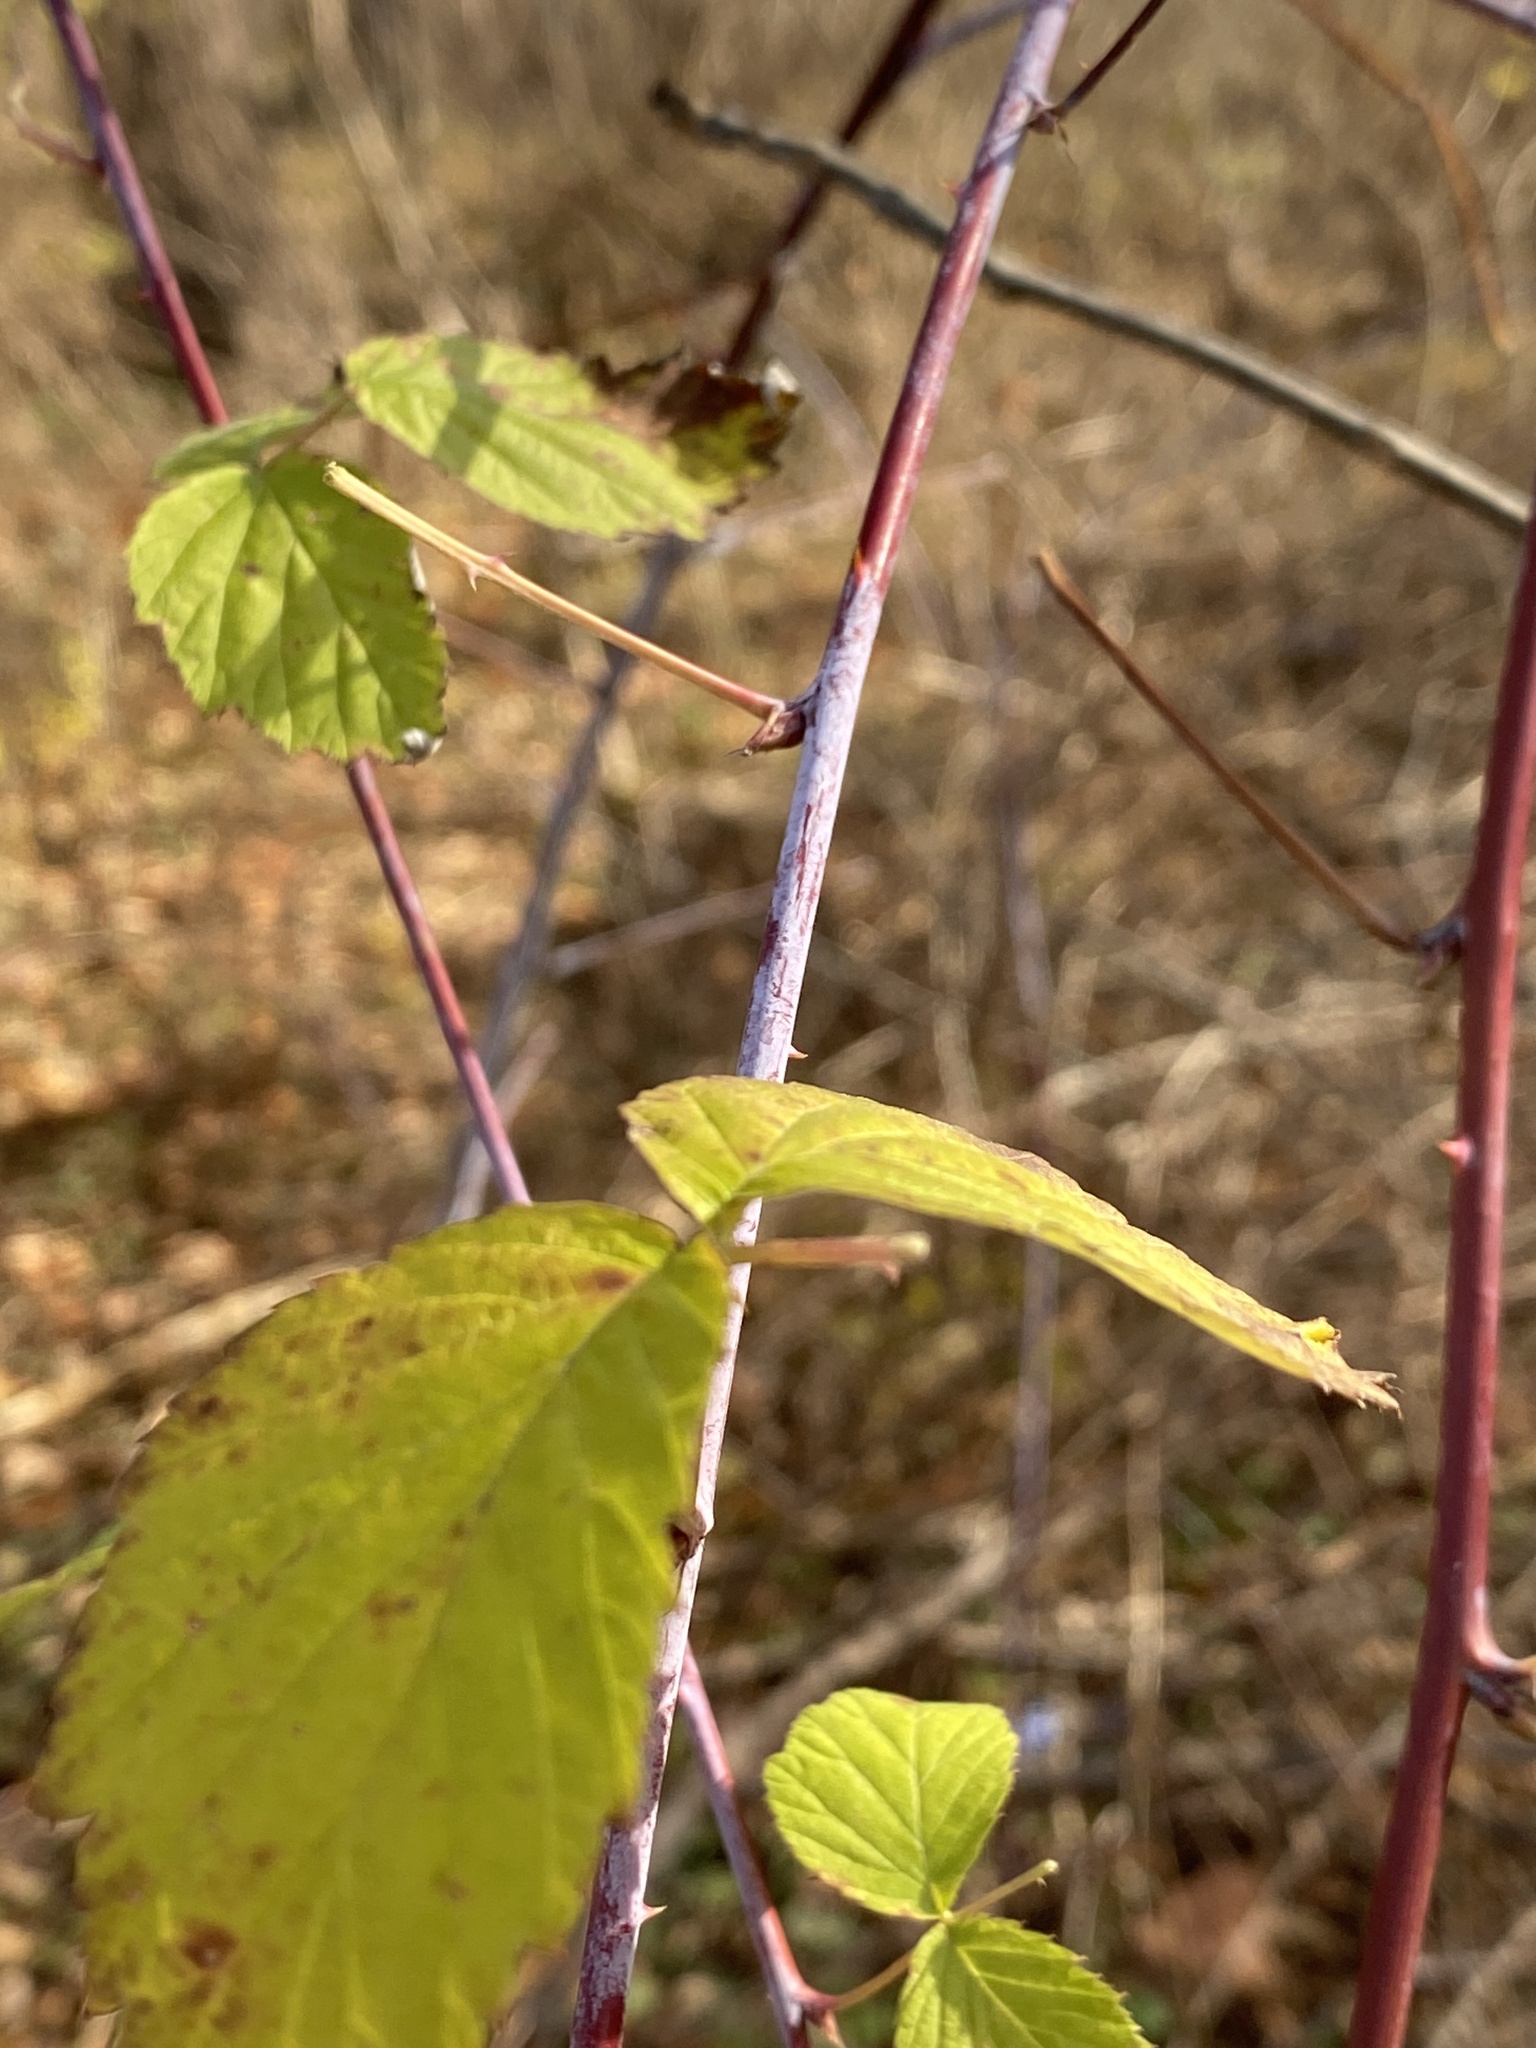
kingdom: Plantae
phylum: Tracheophyta
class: Magnoliopsida
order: Rosales
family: Rosaceae
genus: Rubus
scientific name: Rubus occidentalis
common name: Black raspberry
